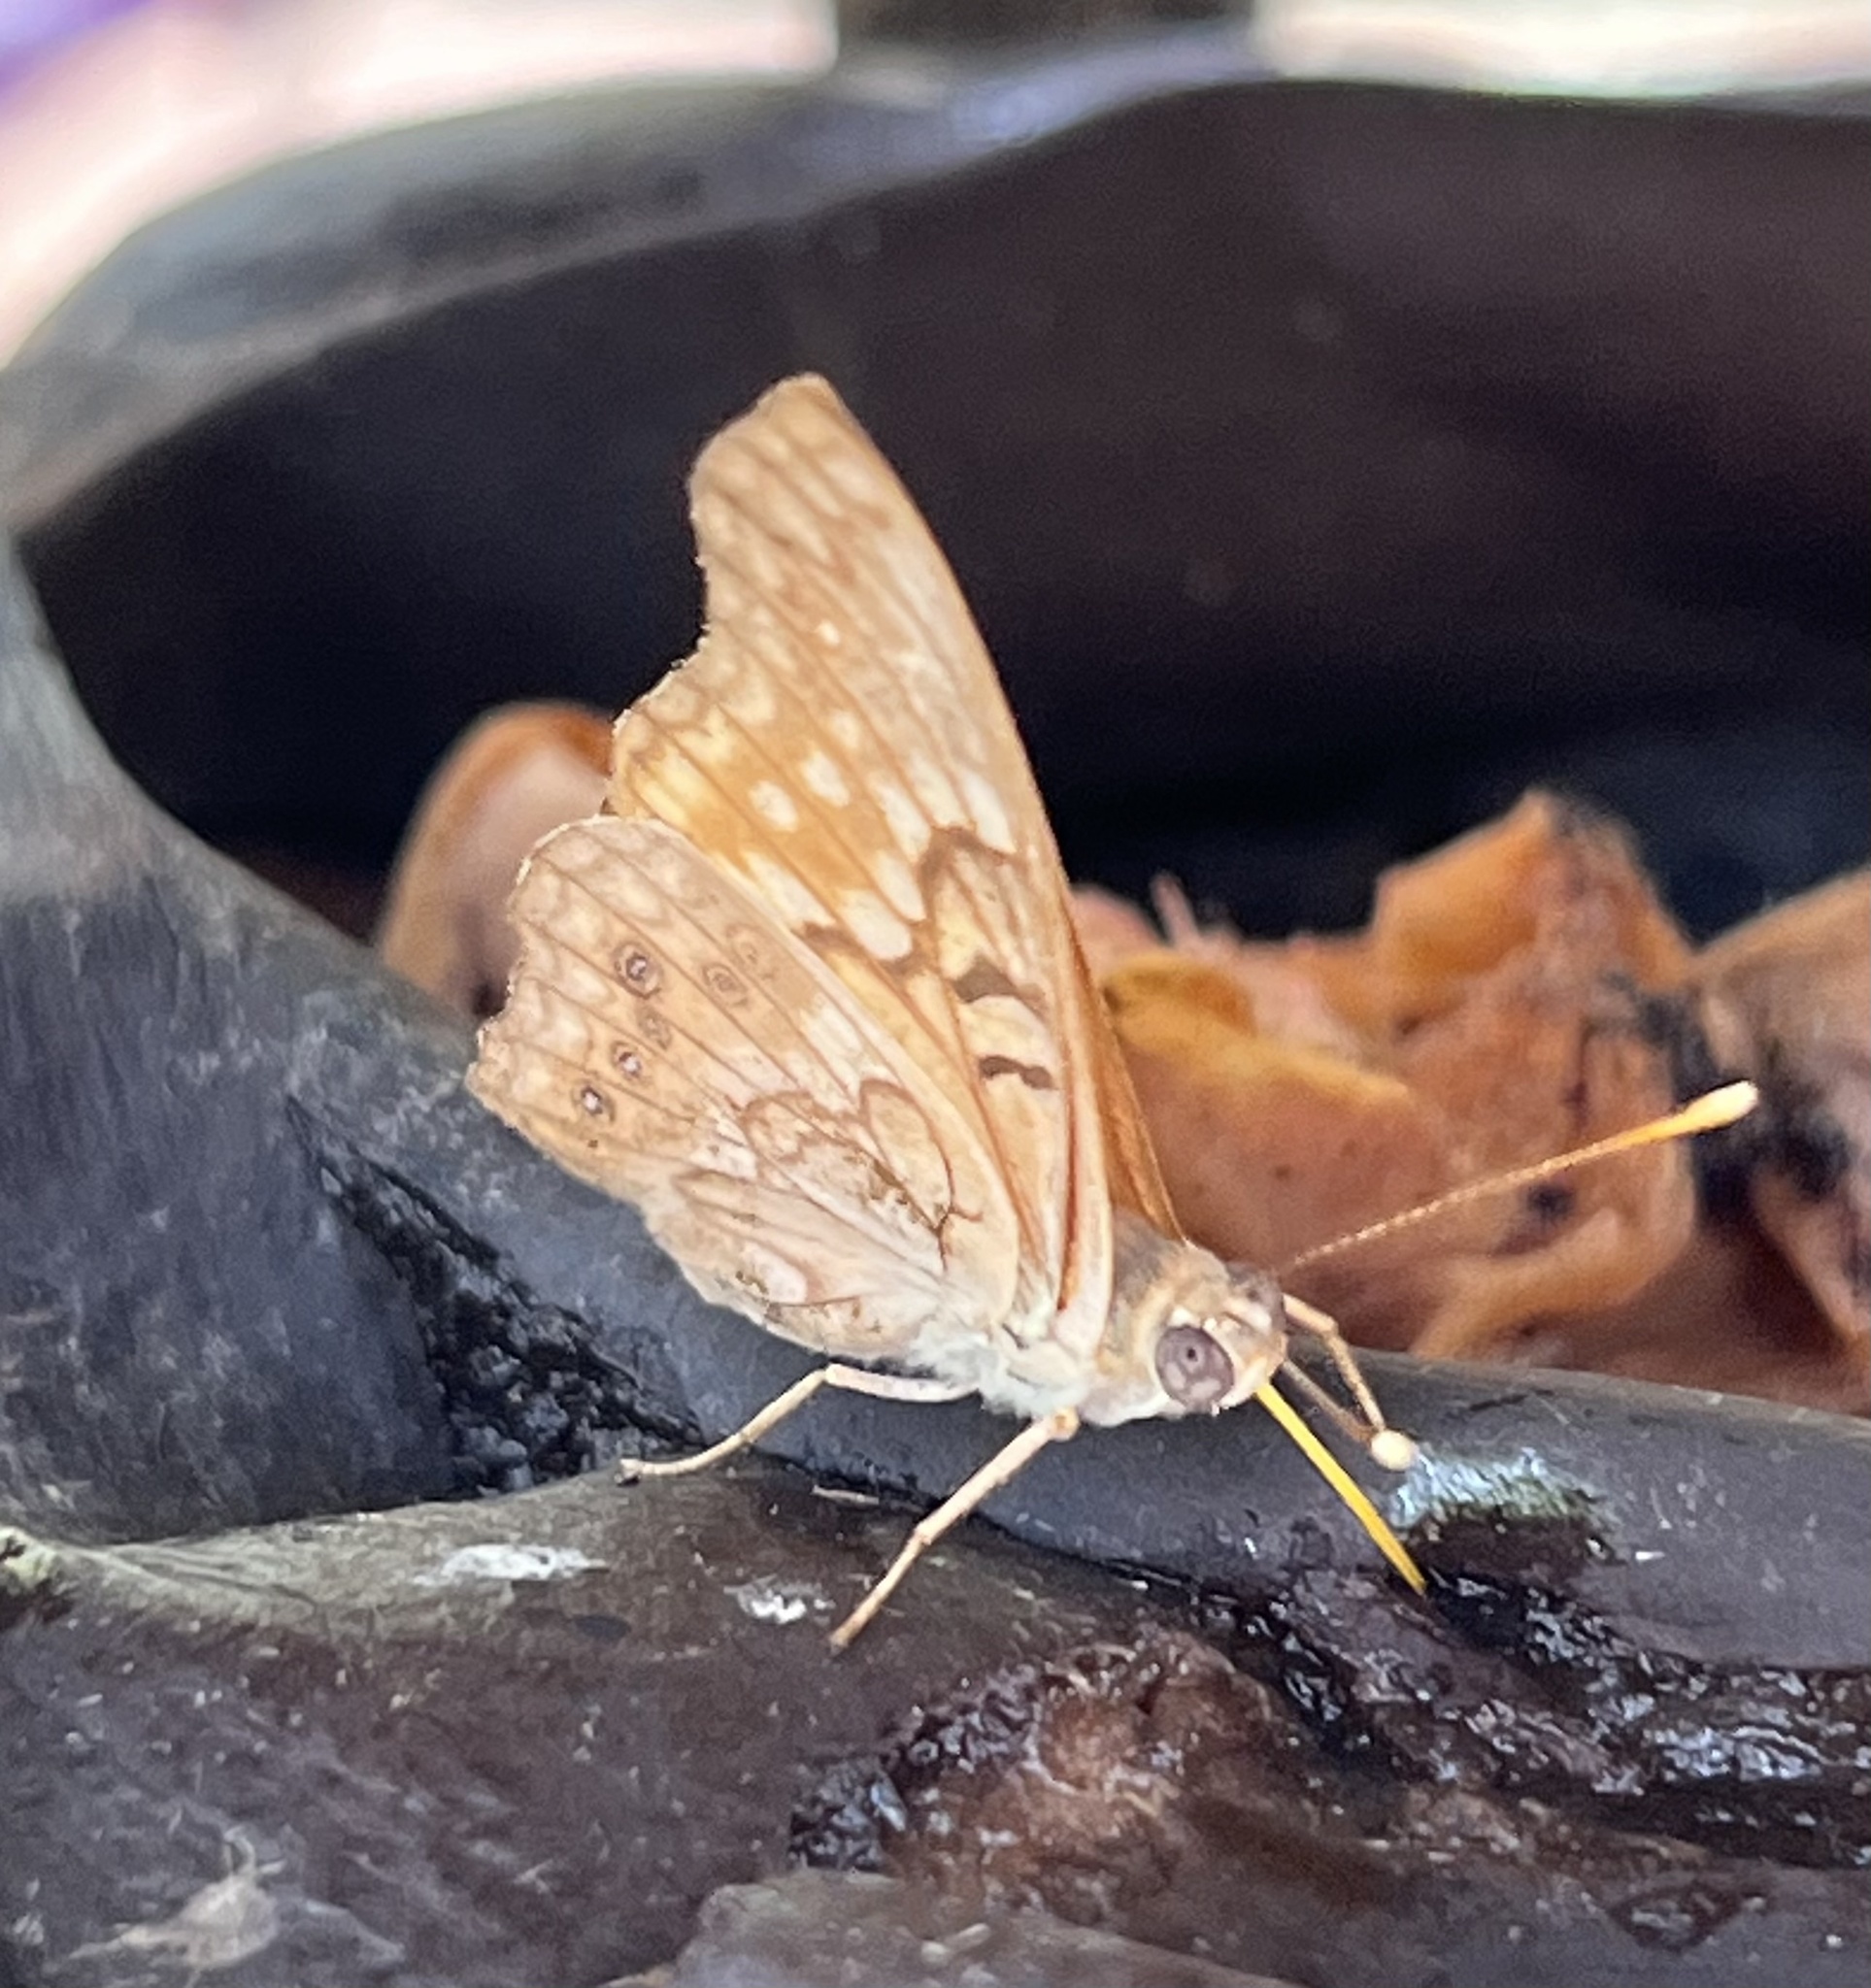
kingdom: Animalia
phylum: Arthropoda
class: Insecta
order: Lepidoptera
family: Nymphalidae
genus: Asterocampa
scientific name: Asterocampa clyton
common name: Tawny emperor
